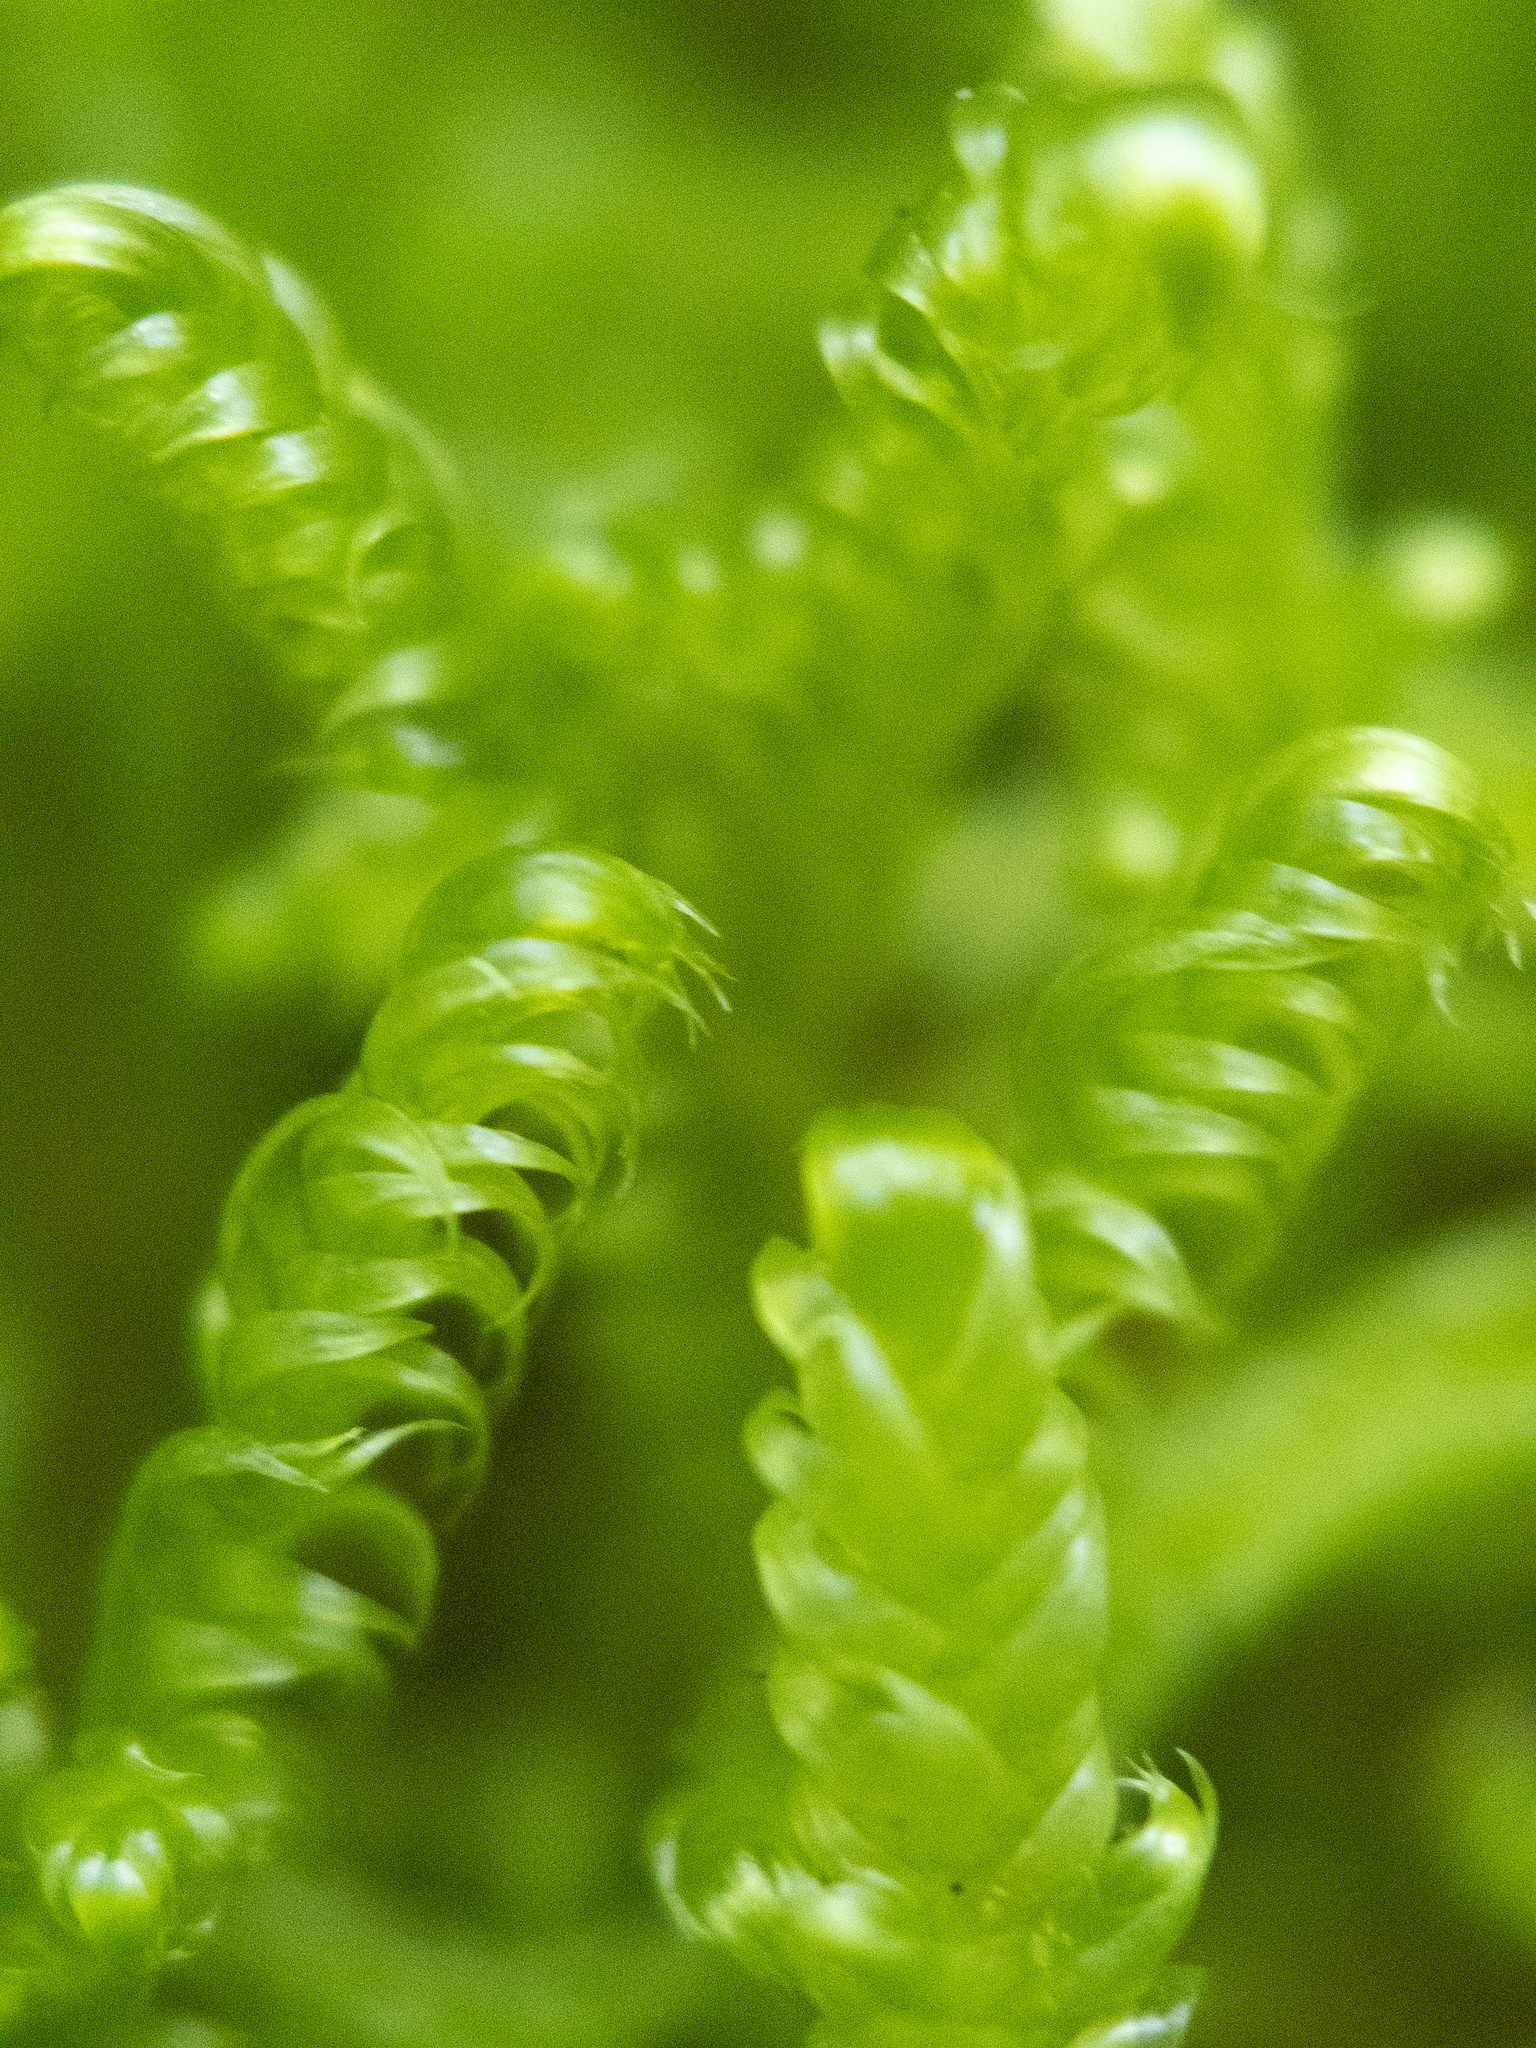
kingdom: Plantae
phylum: Bryophyta
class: Bryopsida
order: Hypnales
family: Callicladiaceae
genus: Callicladium
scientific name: Callicladium imponens
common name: Brocade moss
